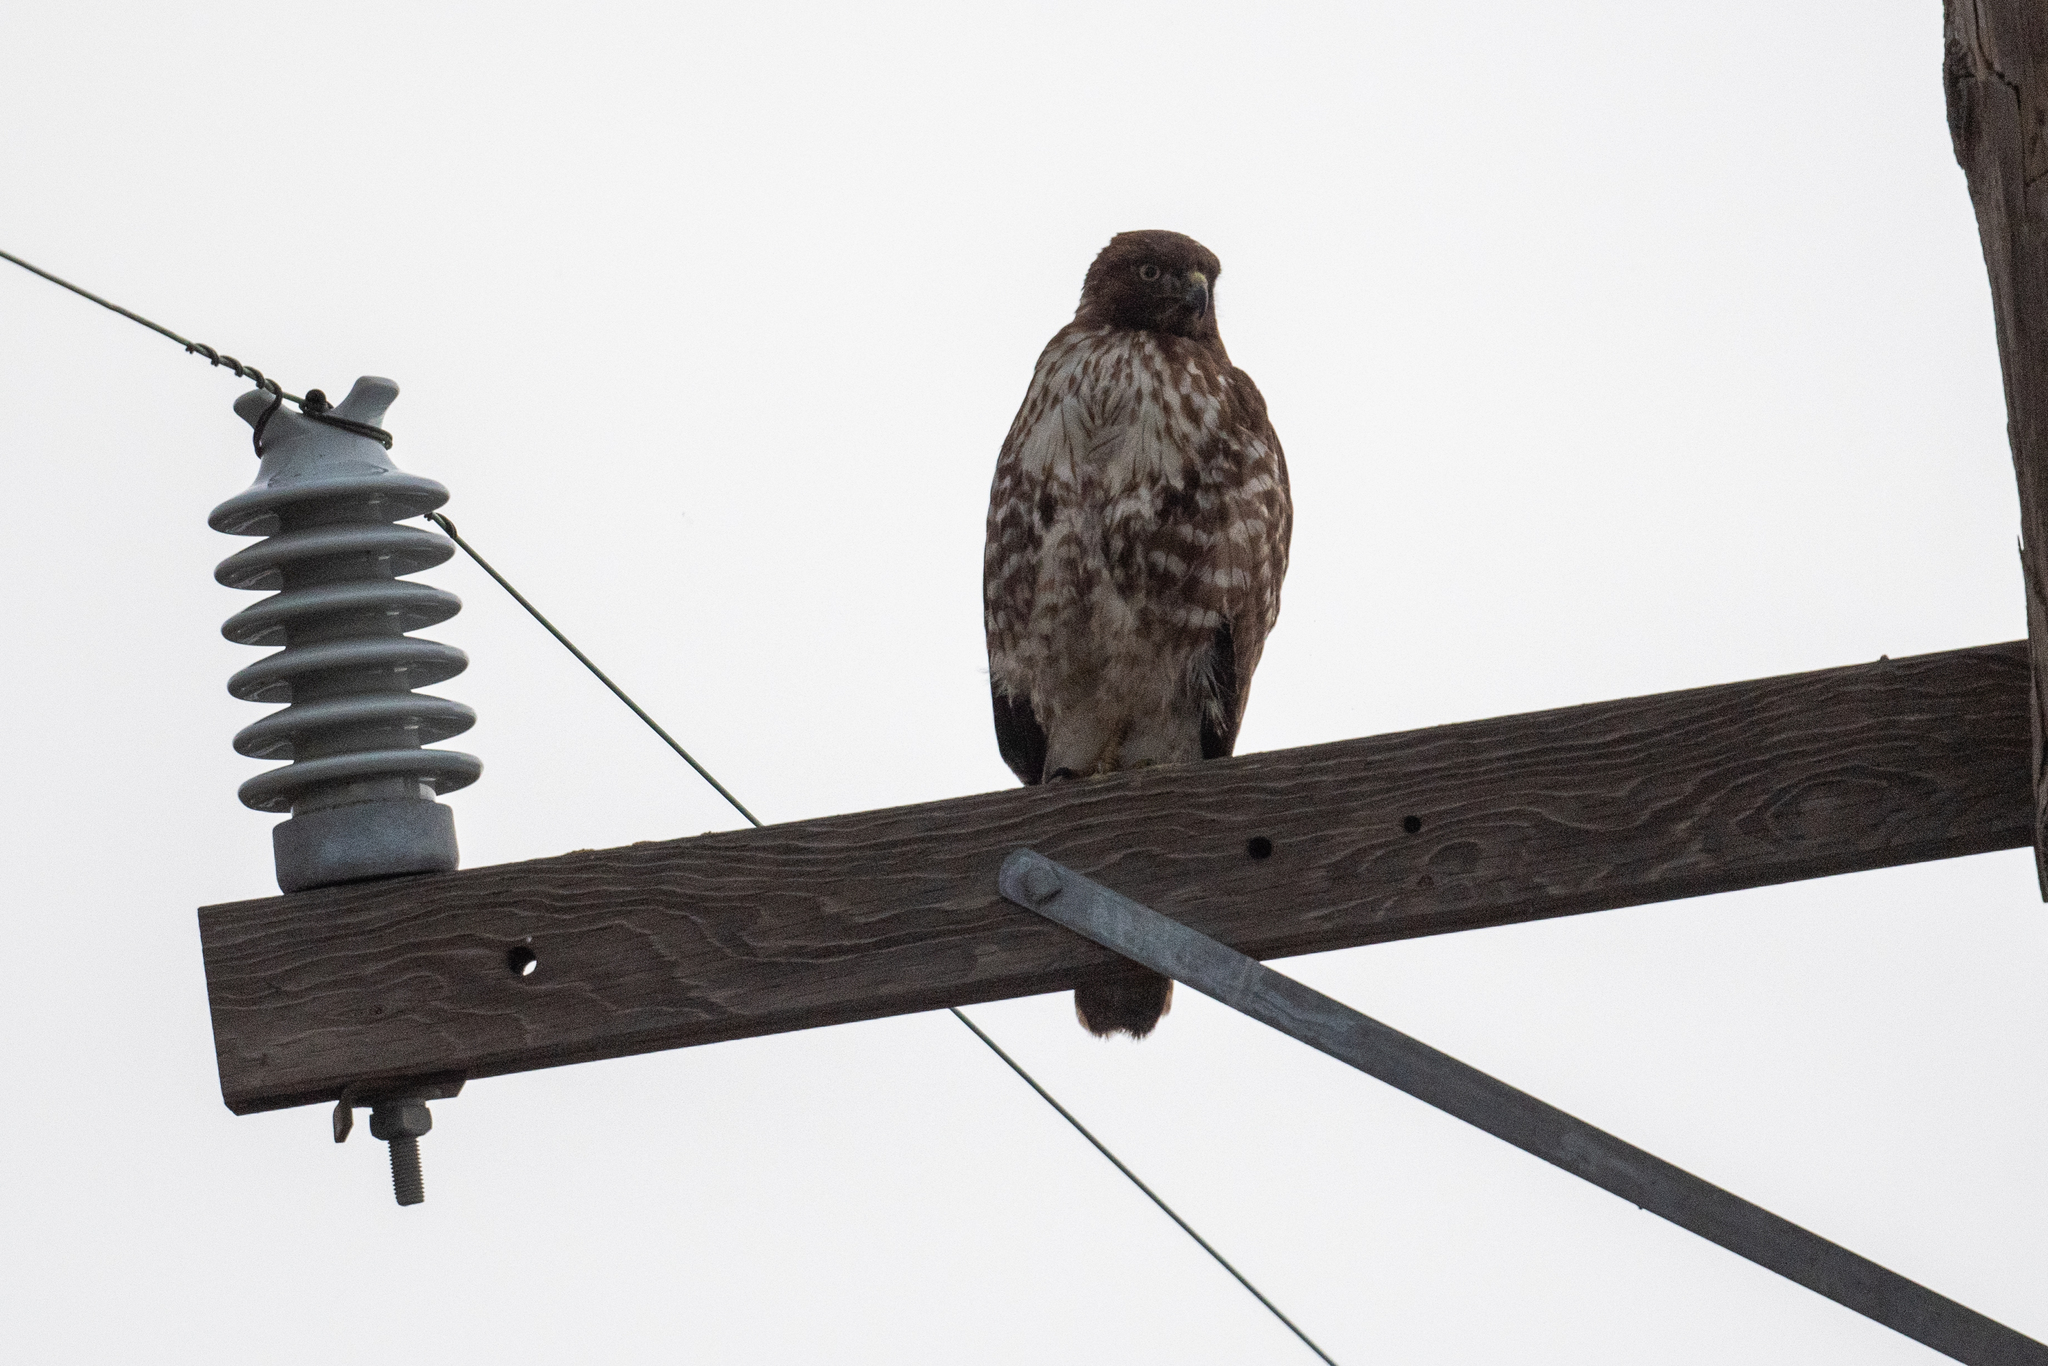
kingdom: Animalia
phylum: Chordata
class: Aves
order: Accipitriformes
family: Accipitridae
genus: Buteo
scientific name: Buteo jamaicensis
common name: Red-tailed hawk
